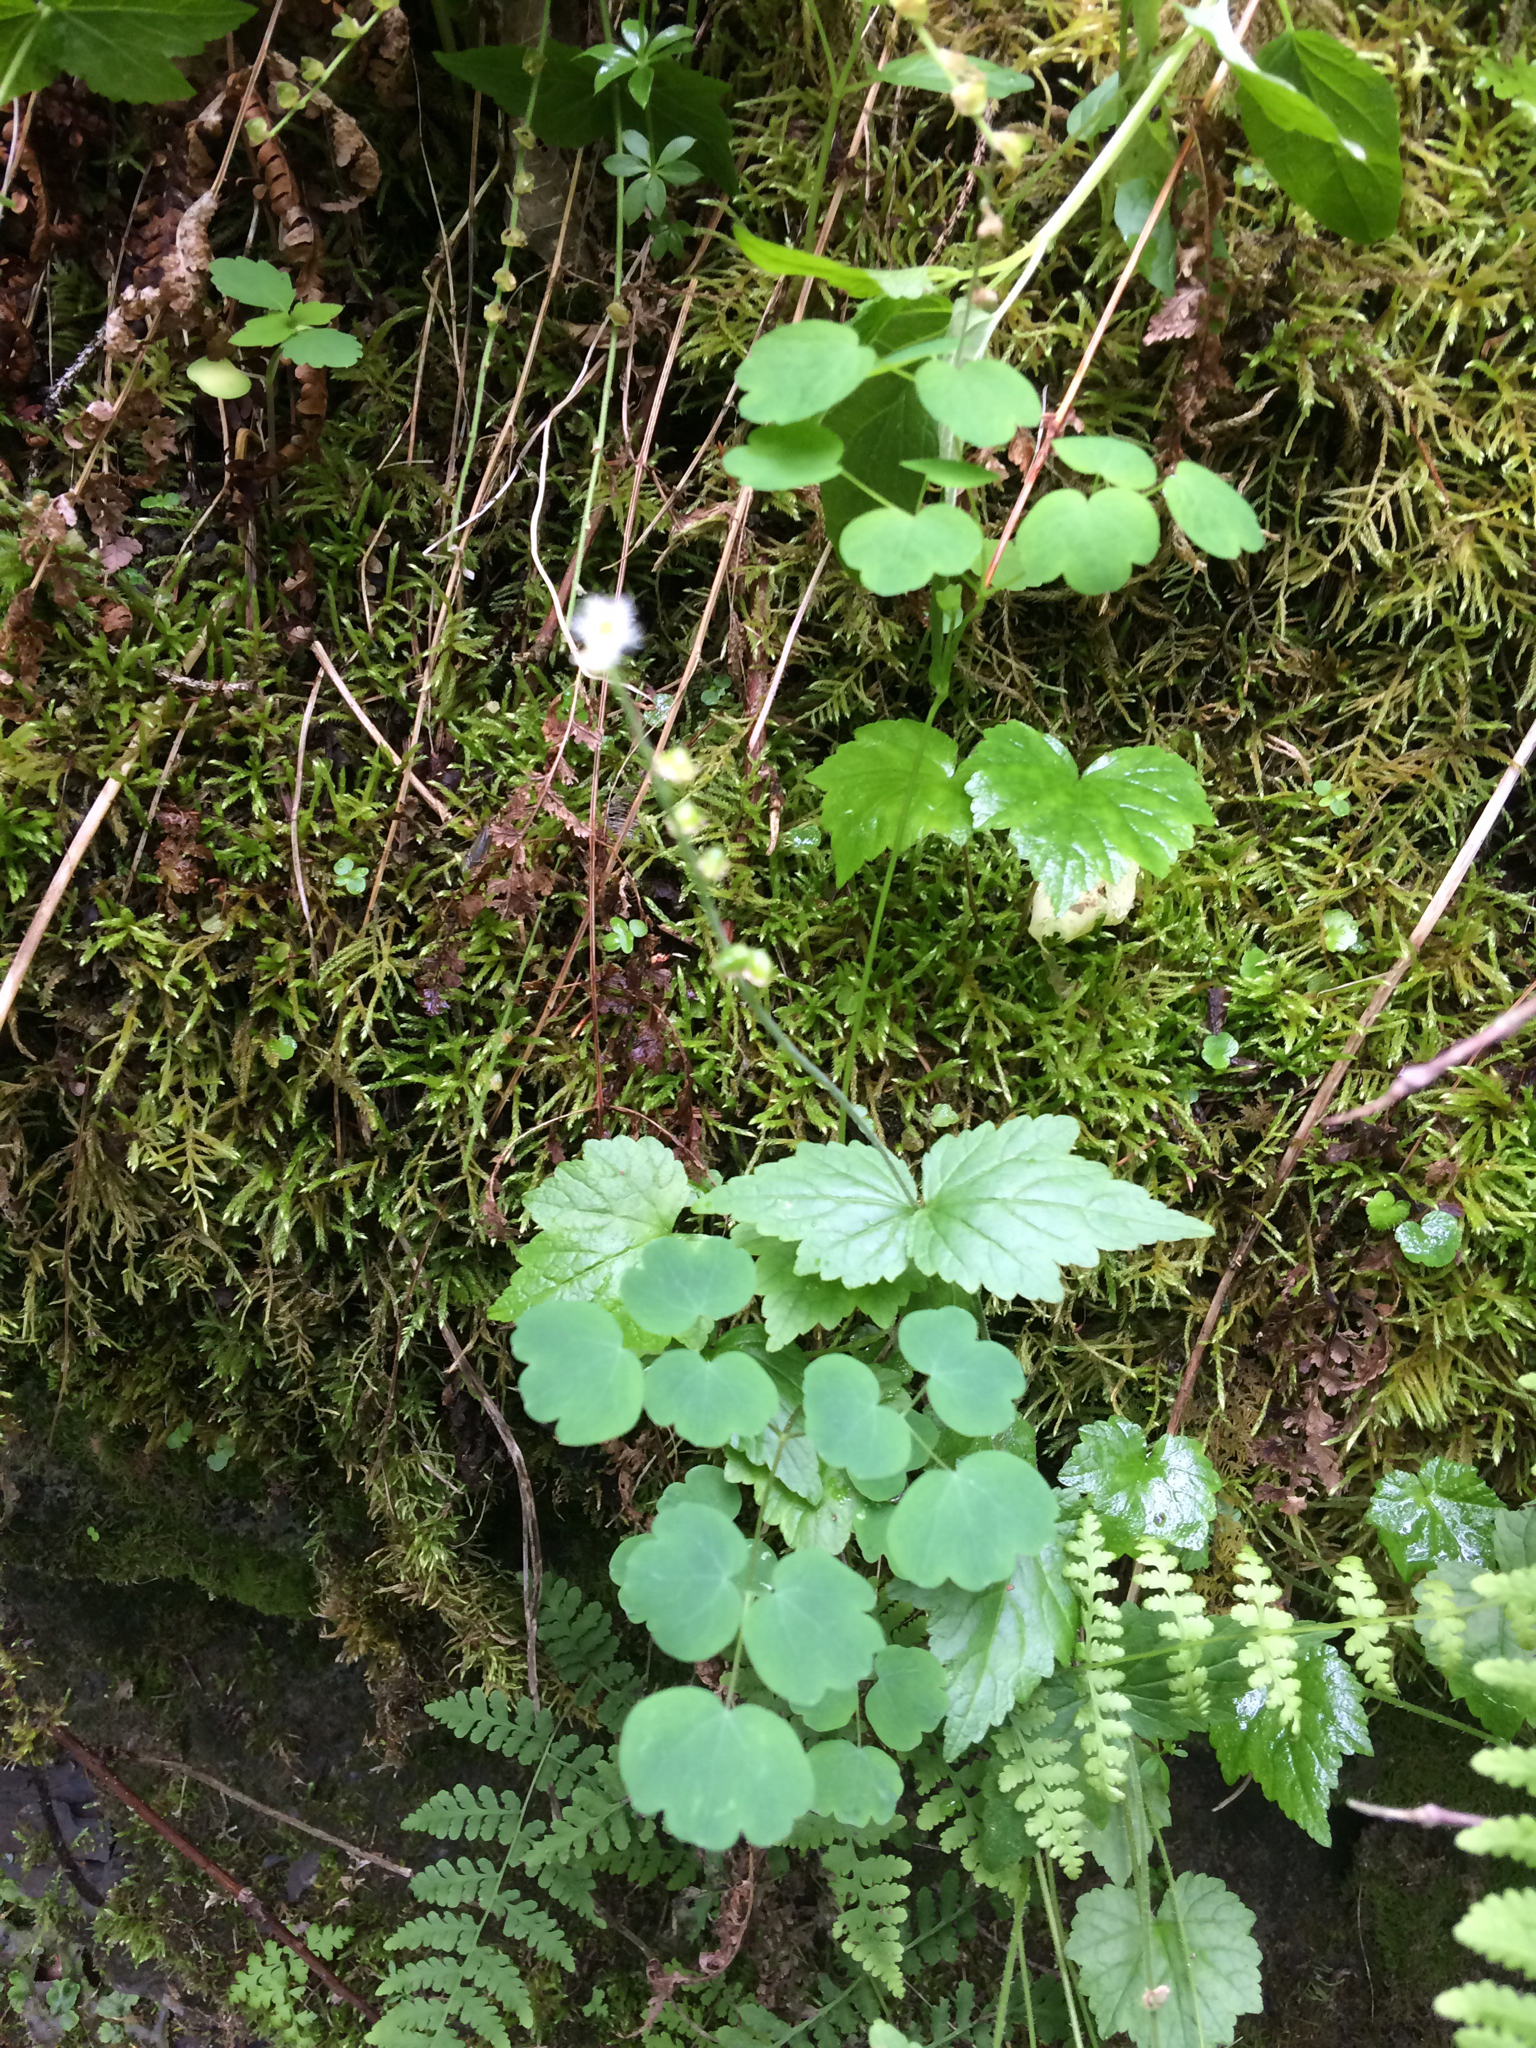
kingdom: Plantae
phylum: Tracheophyta
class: Magnoliopsida
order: Saxifragales
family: Saxifragaceae
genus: Mitella
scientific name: Mitella diphylla
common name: Coolwort
